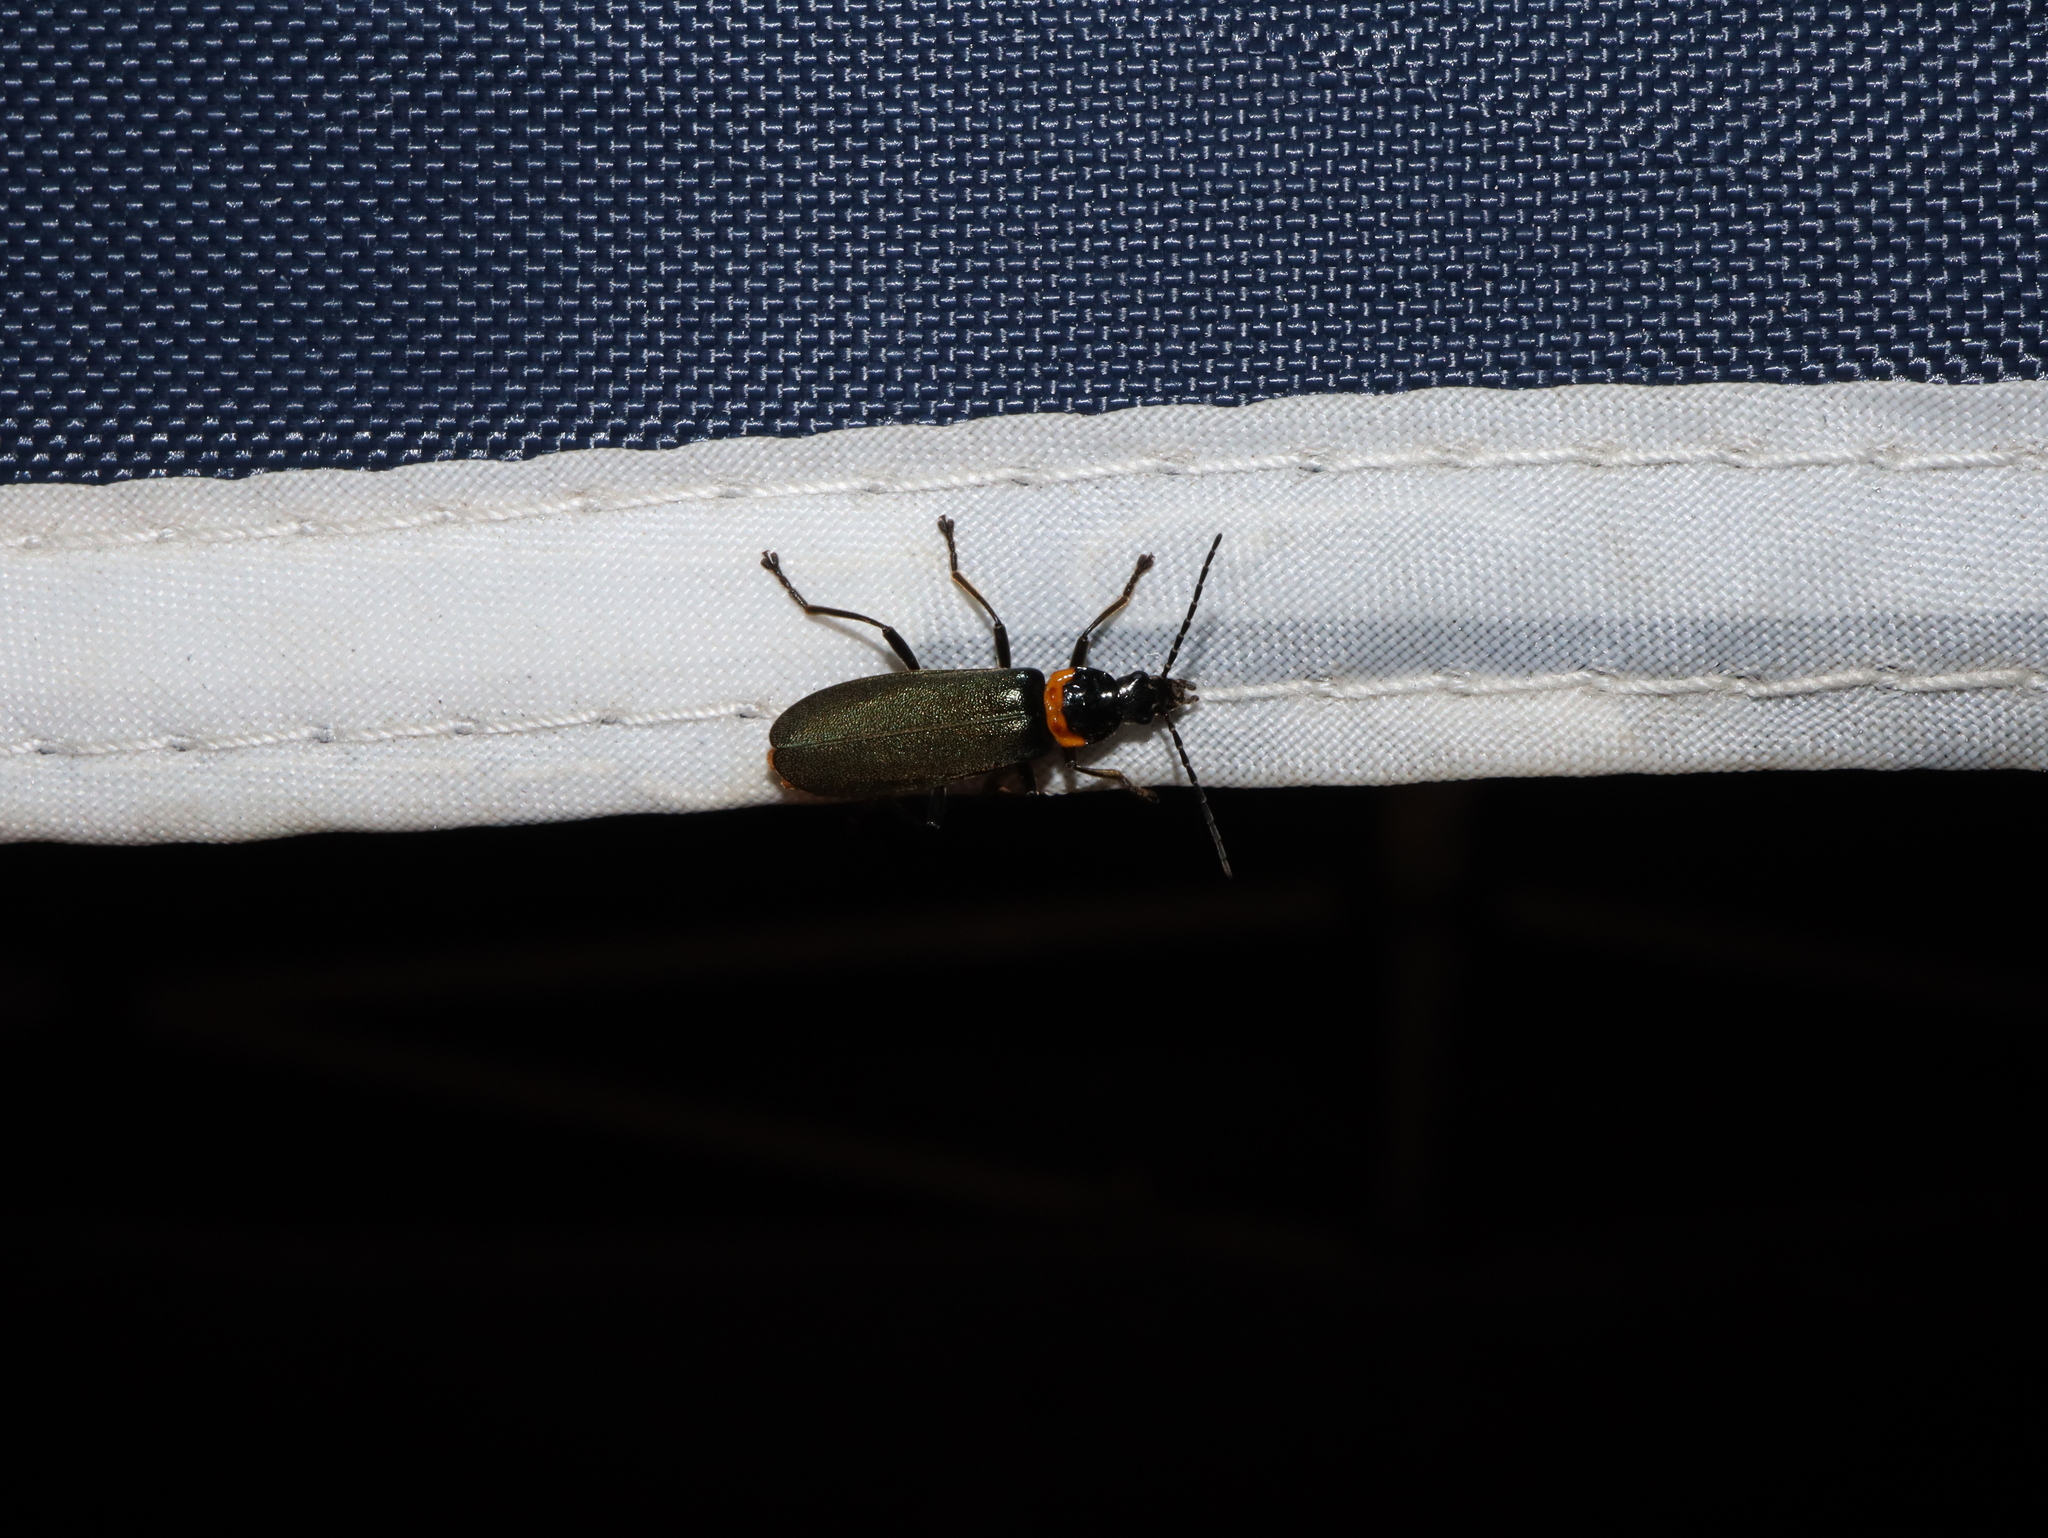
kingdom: Animalia
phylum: Arthropoda
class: Insecta
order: Coleoptera
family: Cantharidae
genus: Chauliognathus
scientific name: Chauliognathus
